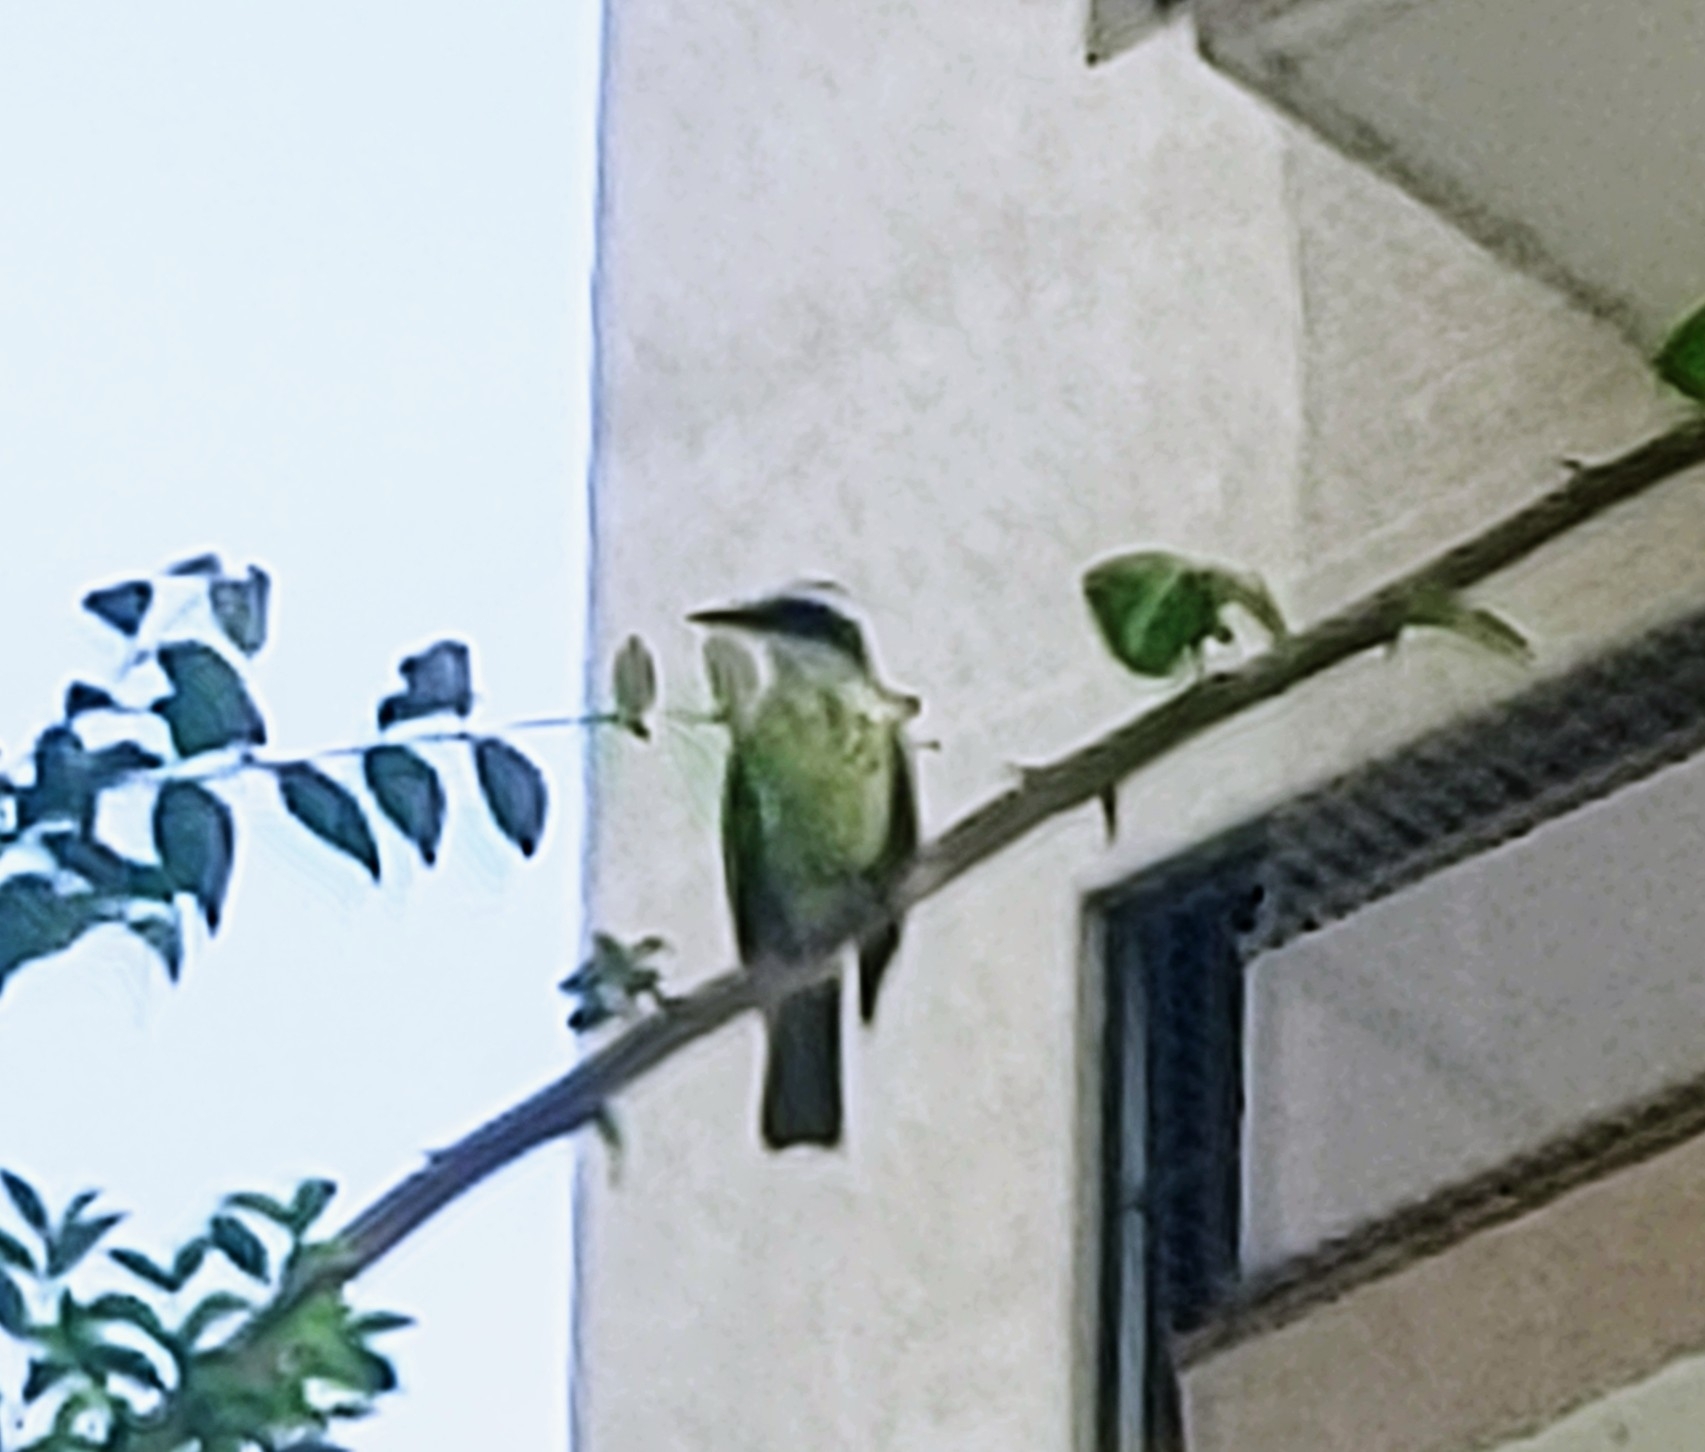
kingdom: Animalia
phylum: Chordata
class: Aves
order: Passeriformes
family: Tyrannidae
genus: Pitangus
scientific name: Pitangus sulphuratus
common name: Great kiskadee
